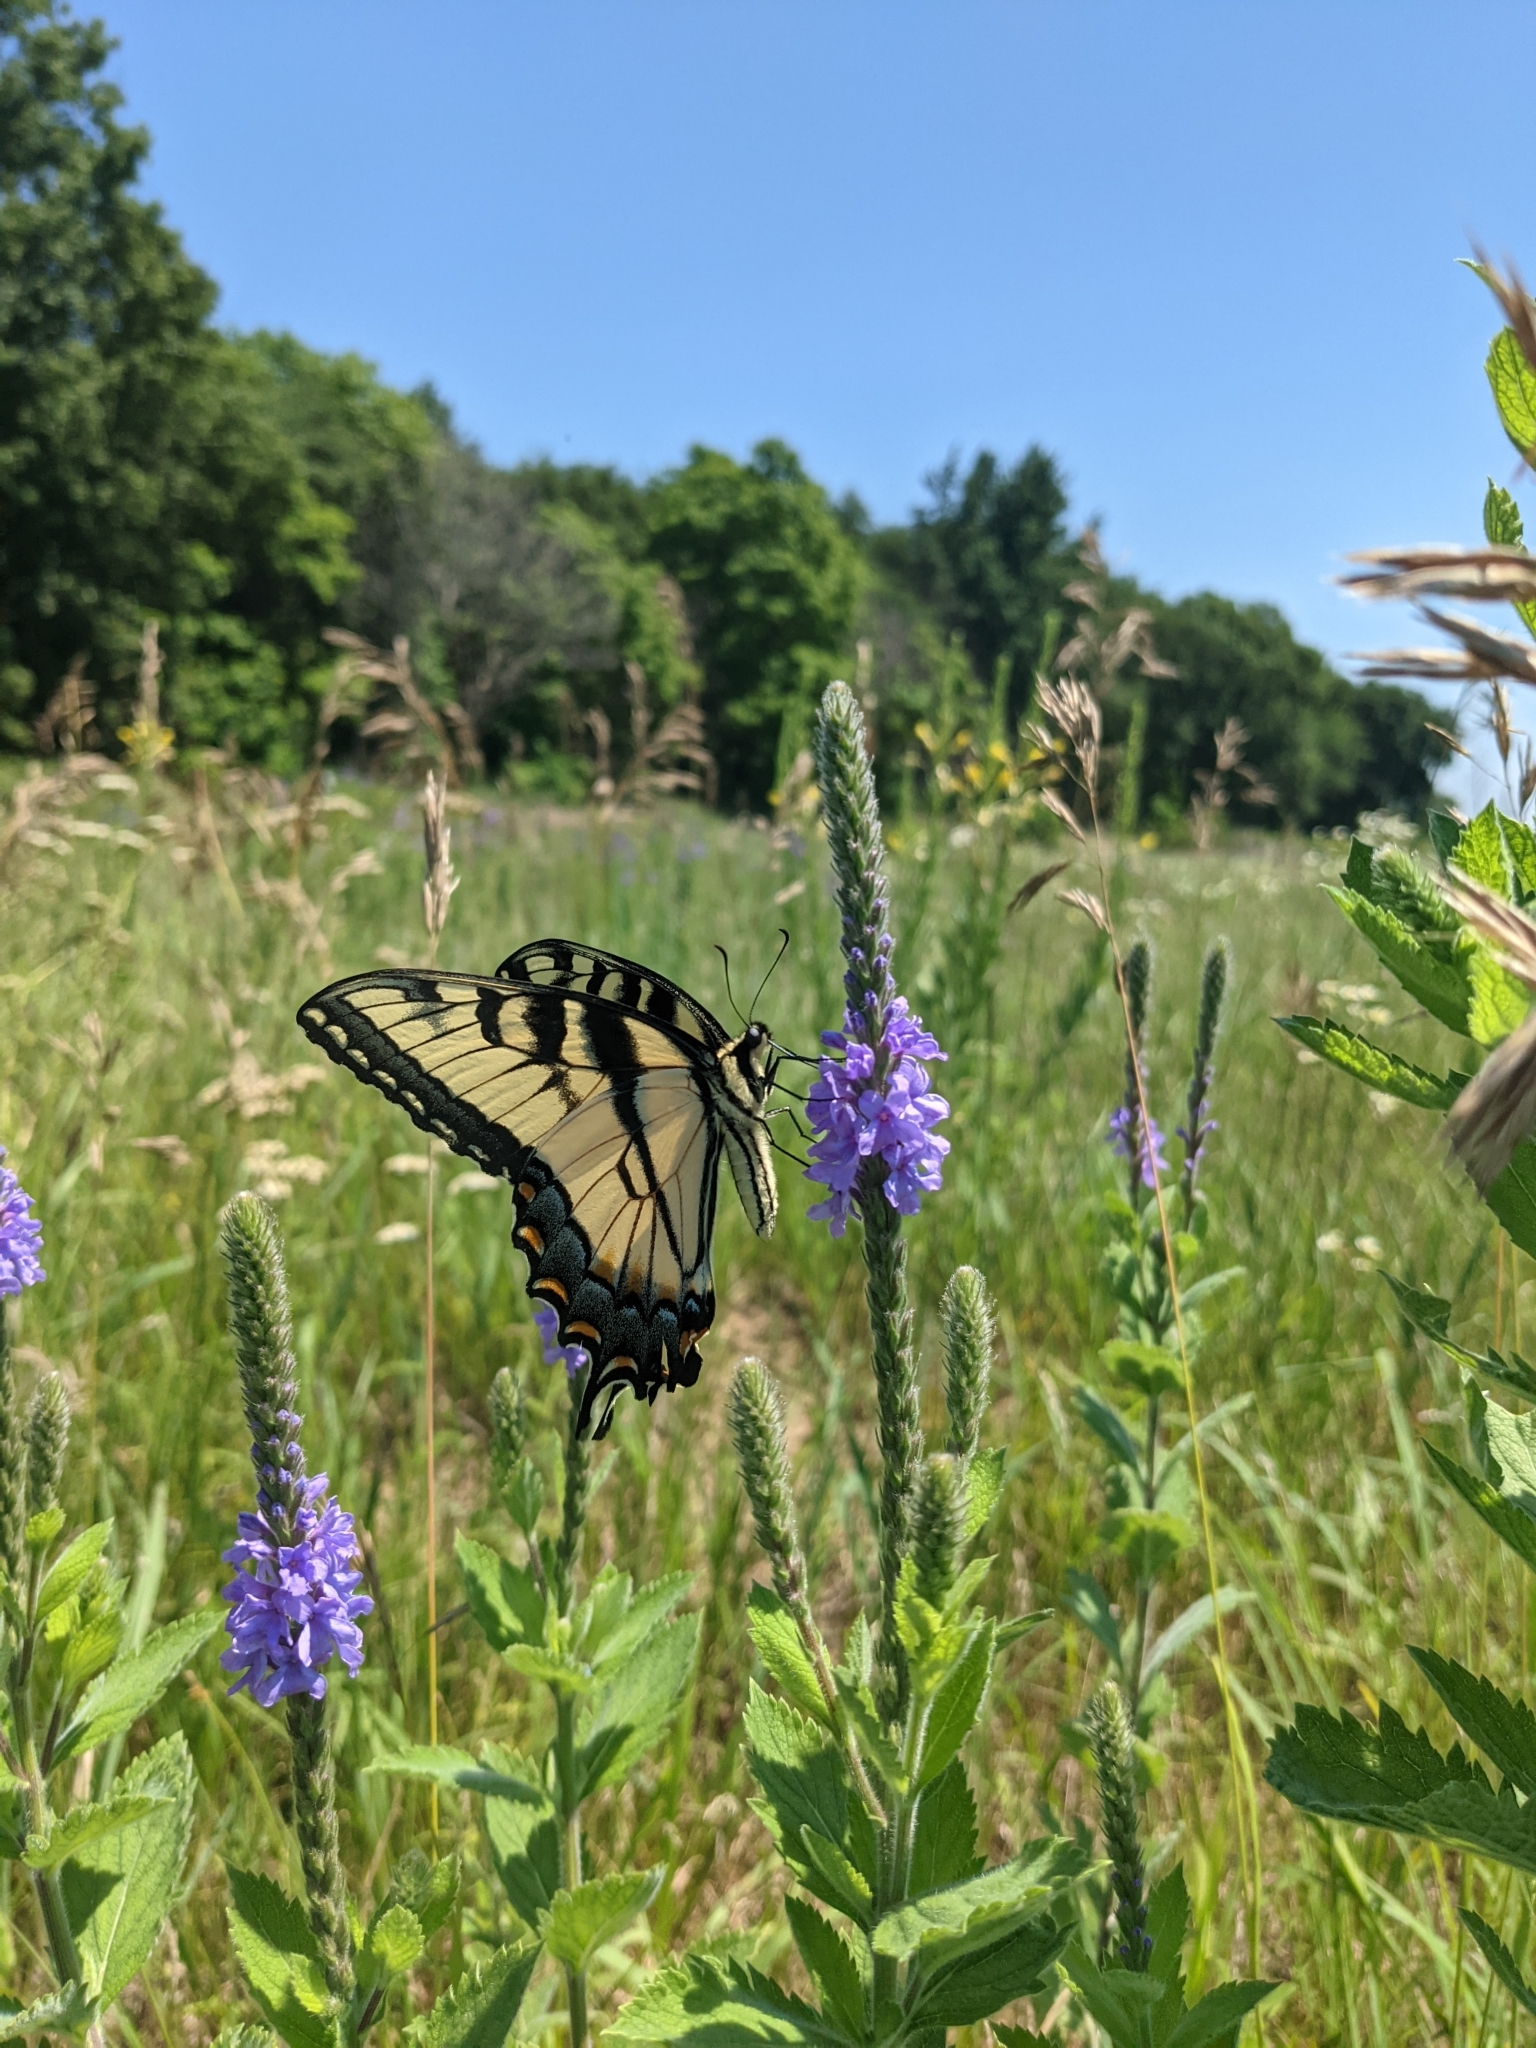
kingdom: Animalia
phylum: Arthropoda
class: Insecta
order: Lepidoptera
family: Papilionidae
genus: Papilio
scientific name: Papilio glaucus
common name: Tiger swallowtail
